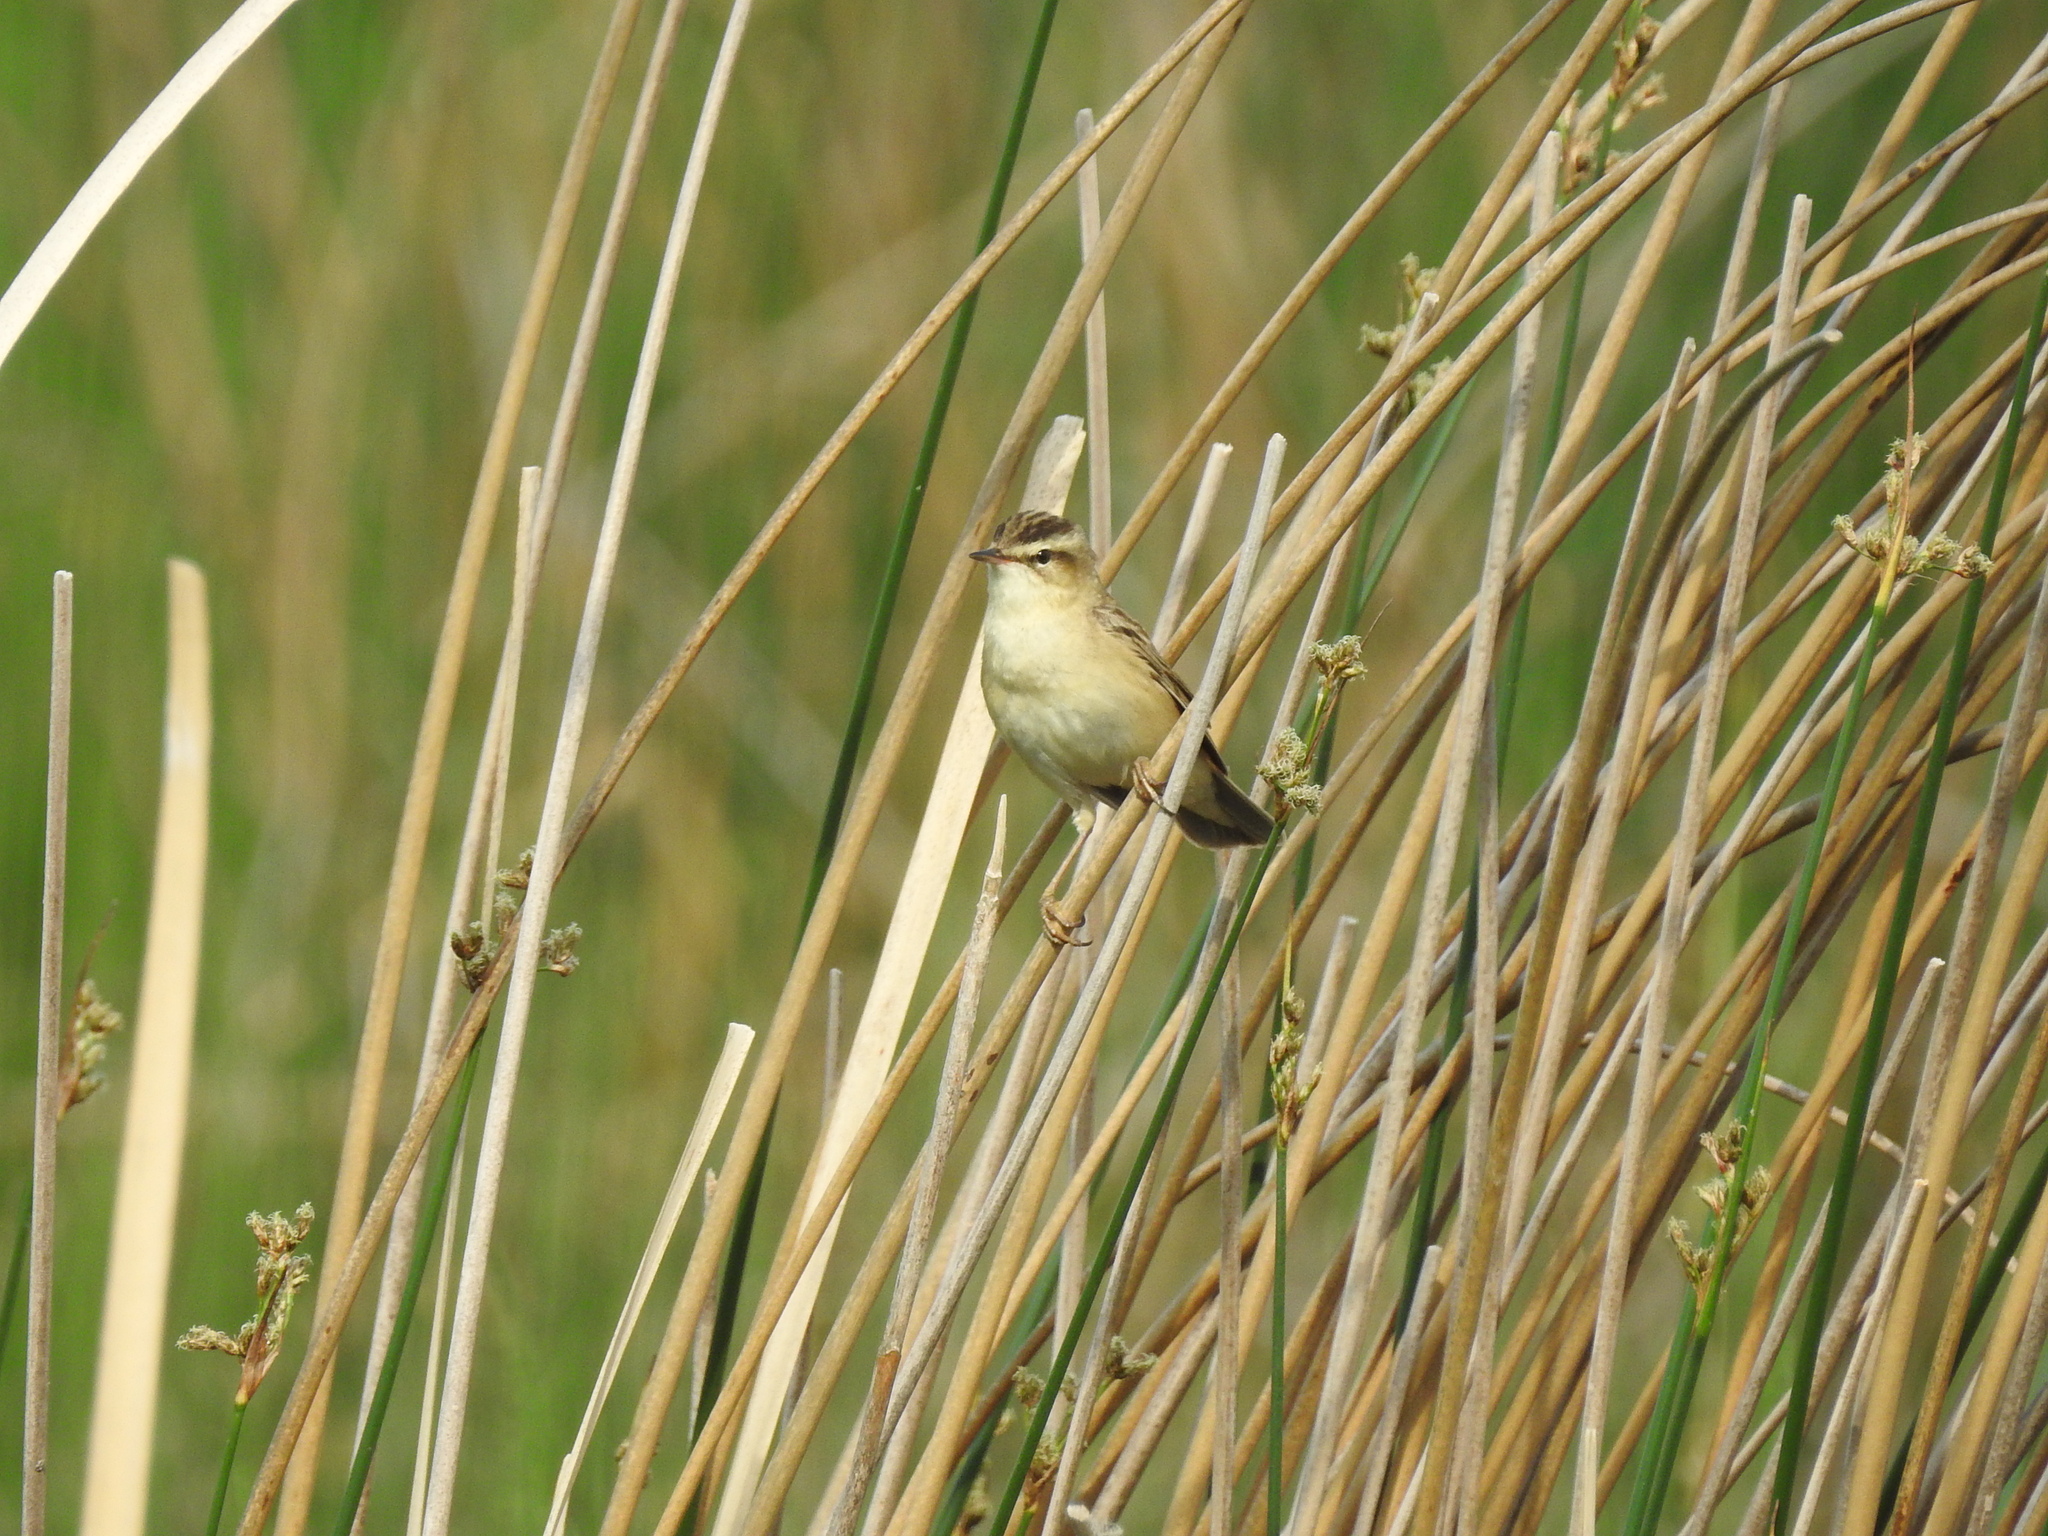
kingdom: Animalia
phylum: Chordata
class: Aves
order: Passeriformes
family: Acrocephalidae
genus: Acrocephalus
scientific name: Acrocephalus schoenobaenus
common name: Sedge warbler
